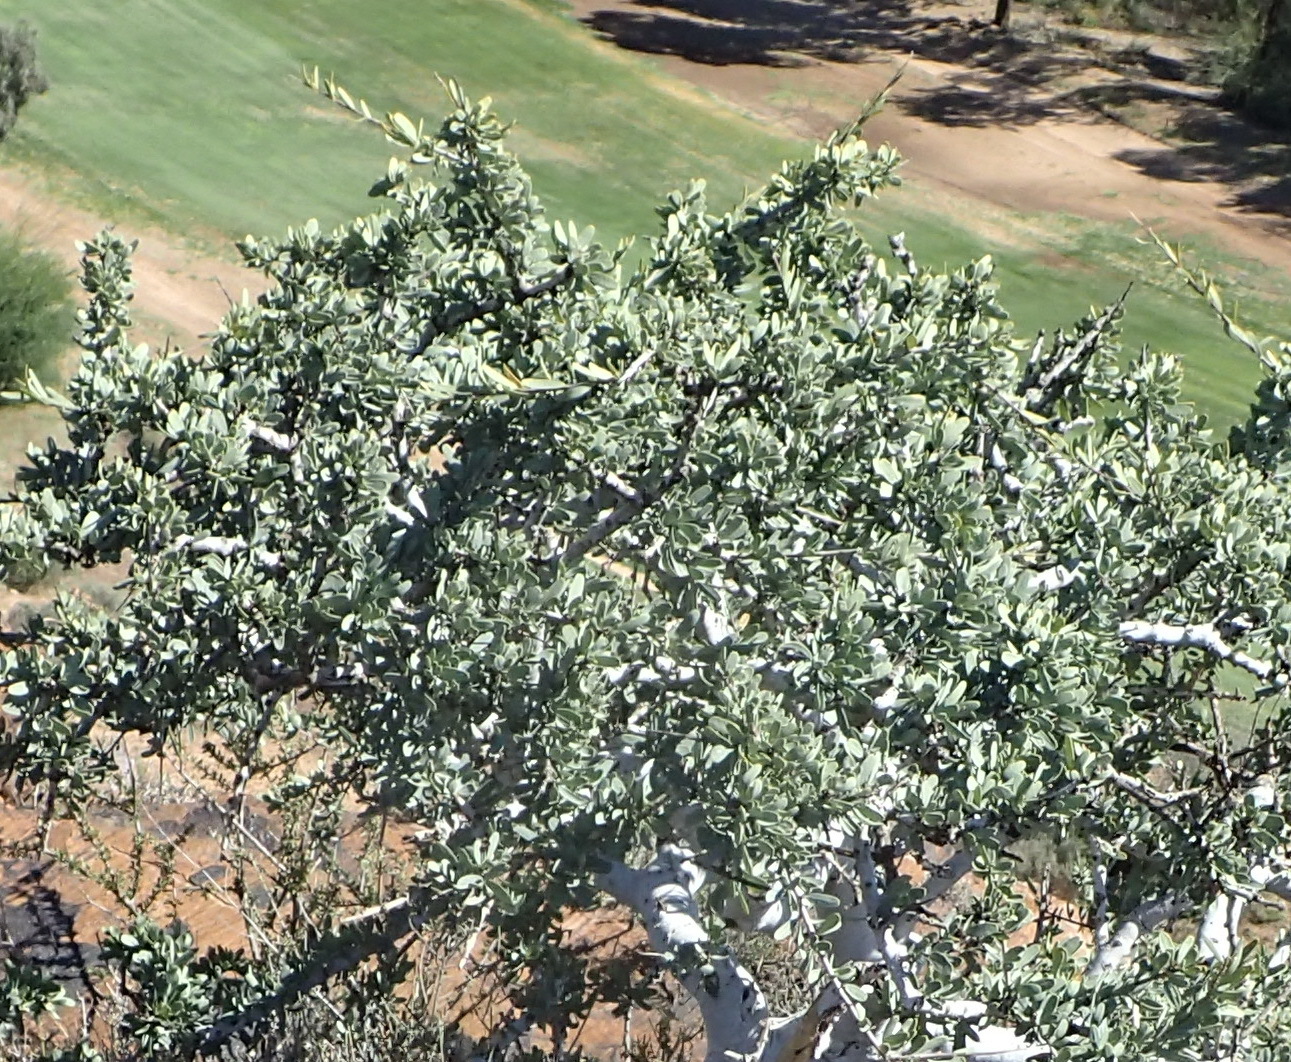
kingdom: Plantae
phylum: Tracheophyta
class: Magnoliopsida
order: Brassicales
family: Capparaceae
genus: Boscia
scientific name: Boscia albitrunca
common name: Caper bush
